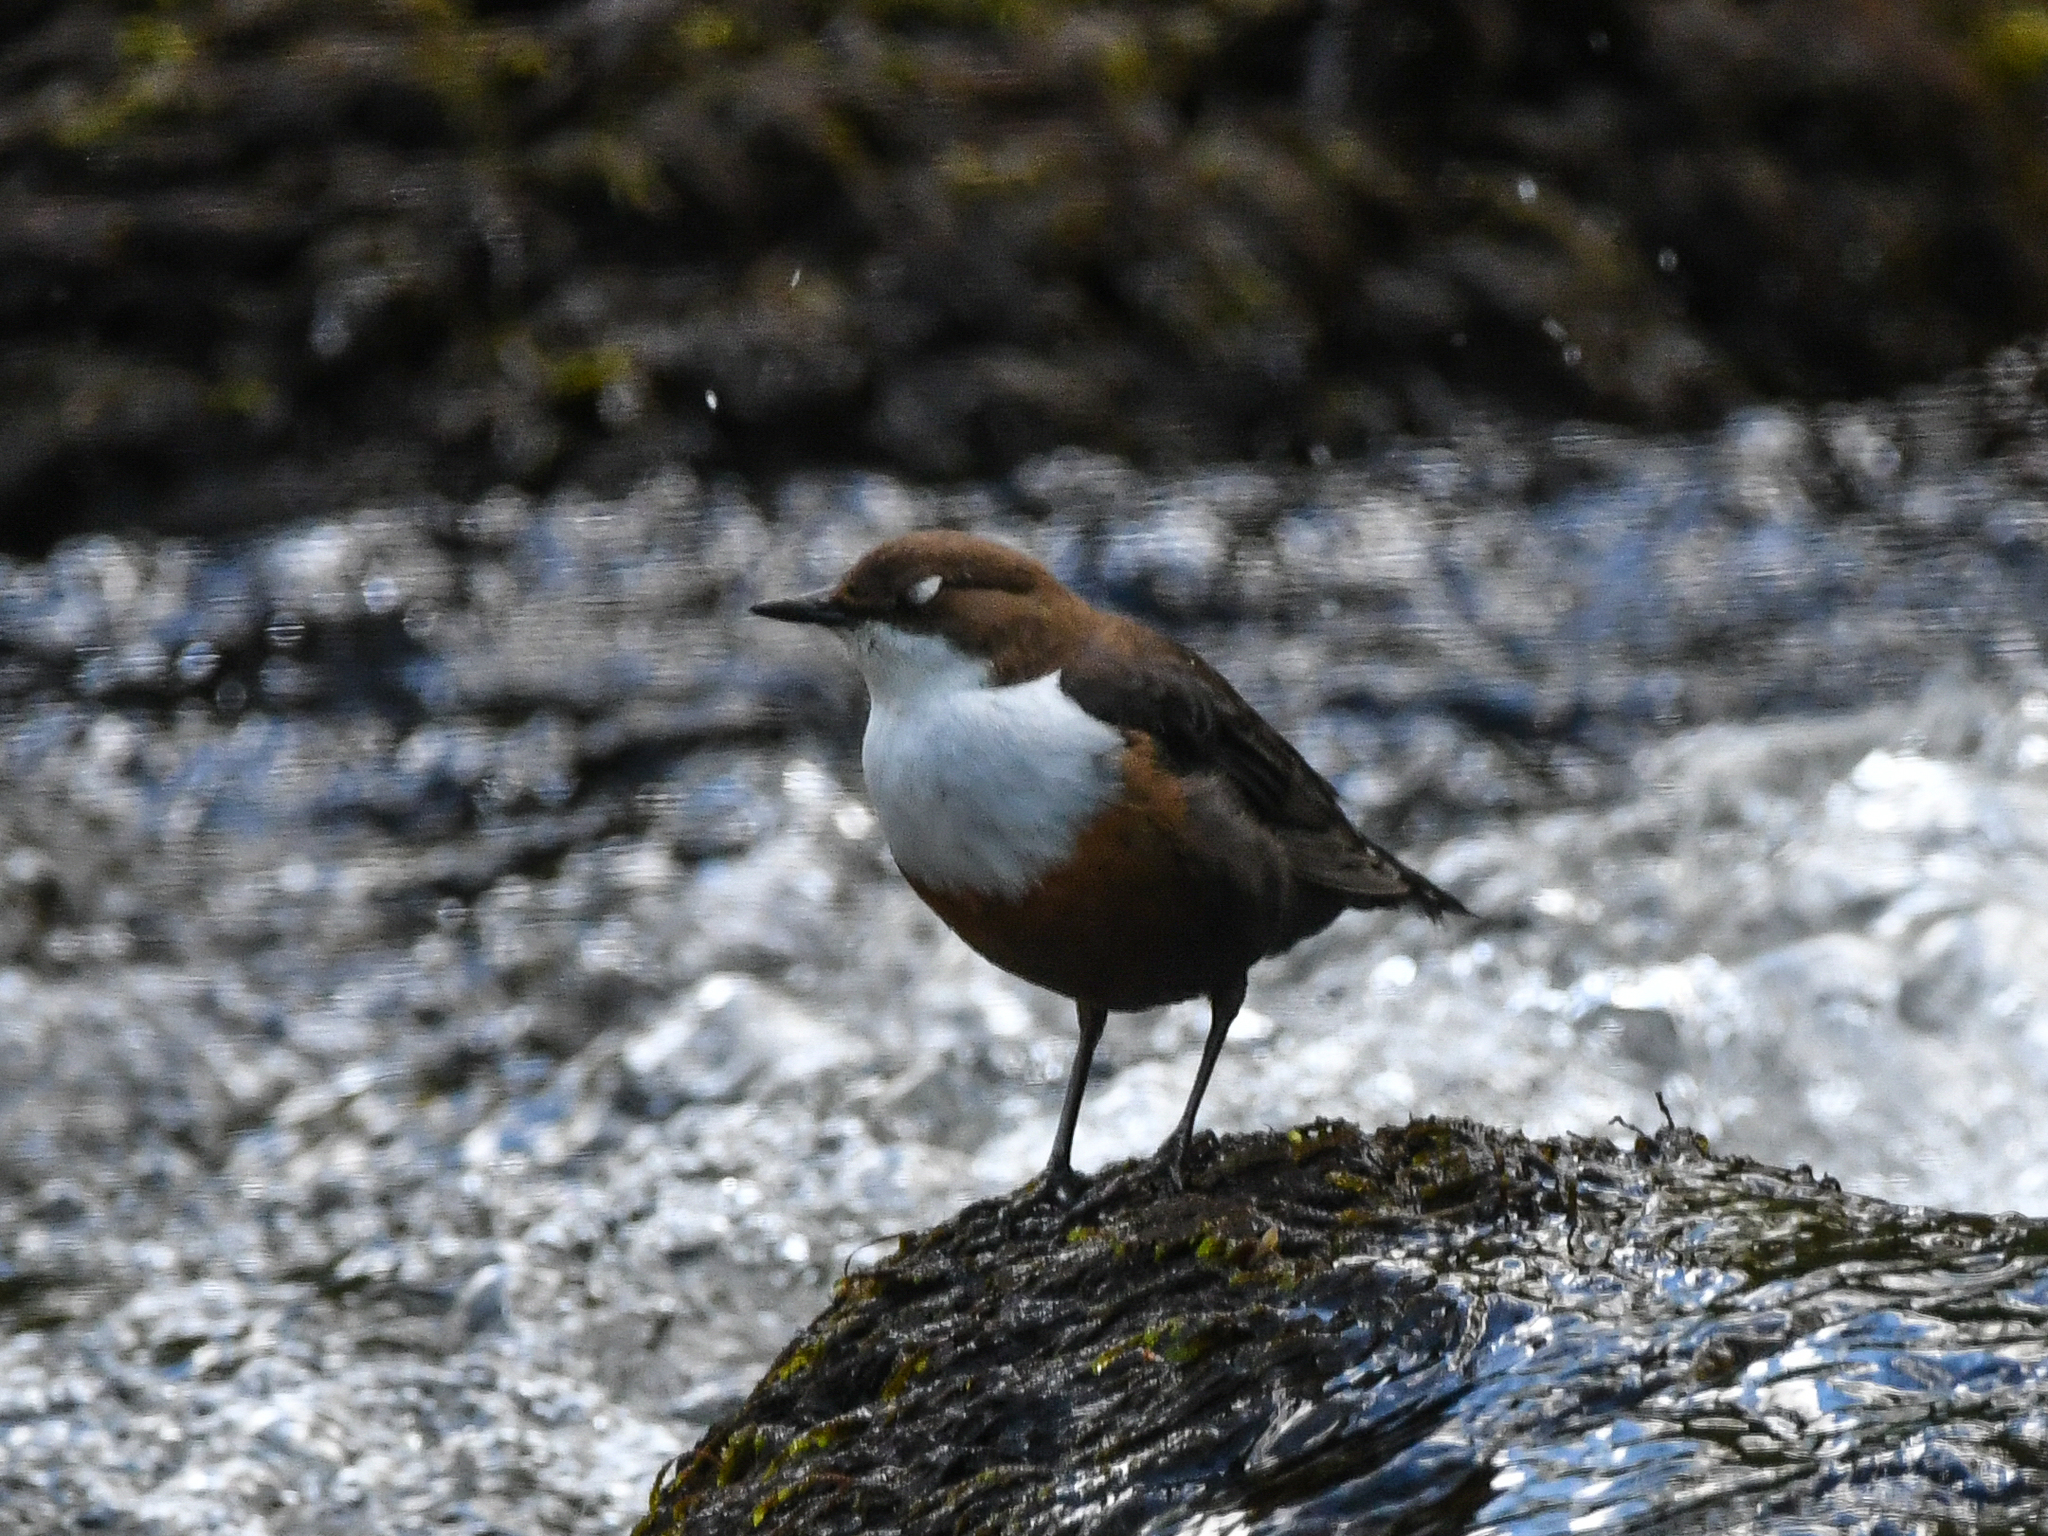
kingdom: Animalia
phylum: Chordata
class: Aves
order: Passeriformes
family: Cinclidae
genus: Cinclus
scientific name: Cinclus cinclus
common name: White-throated dipper
